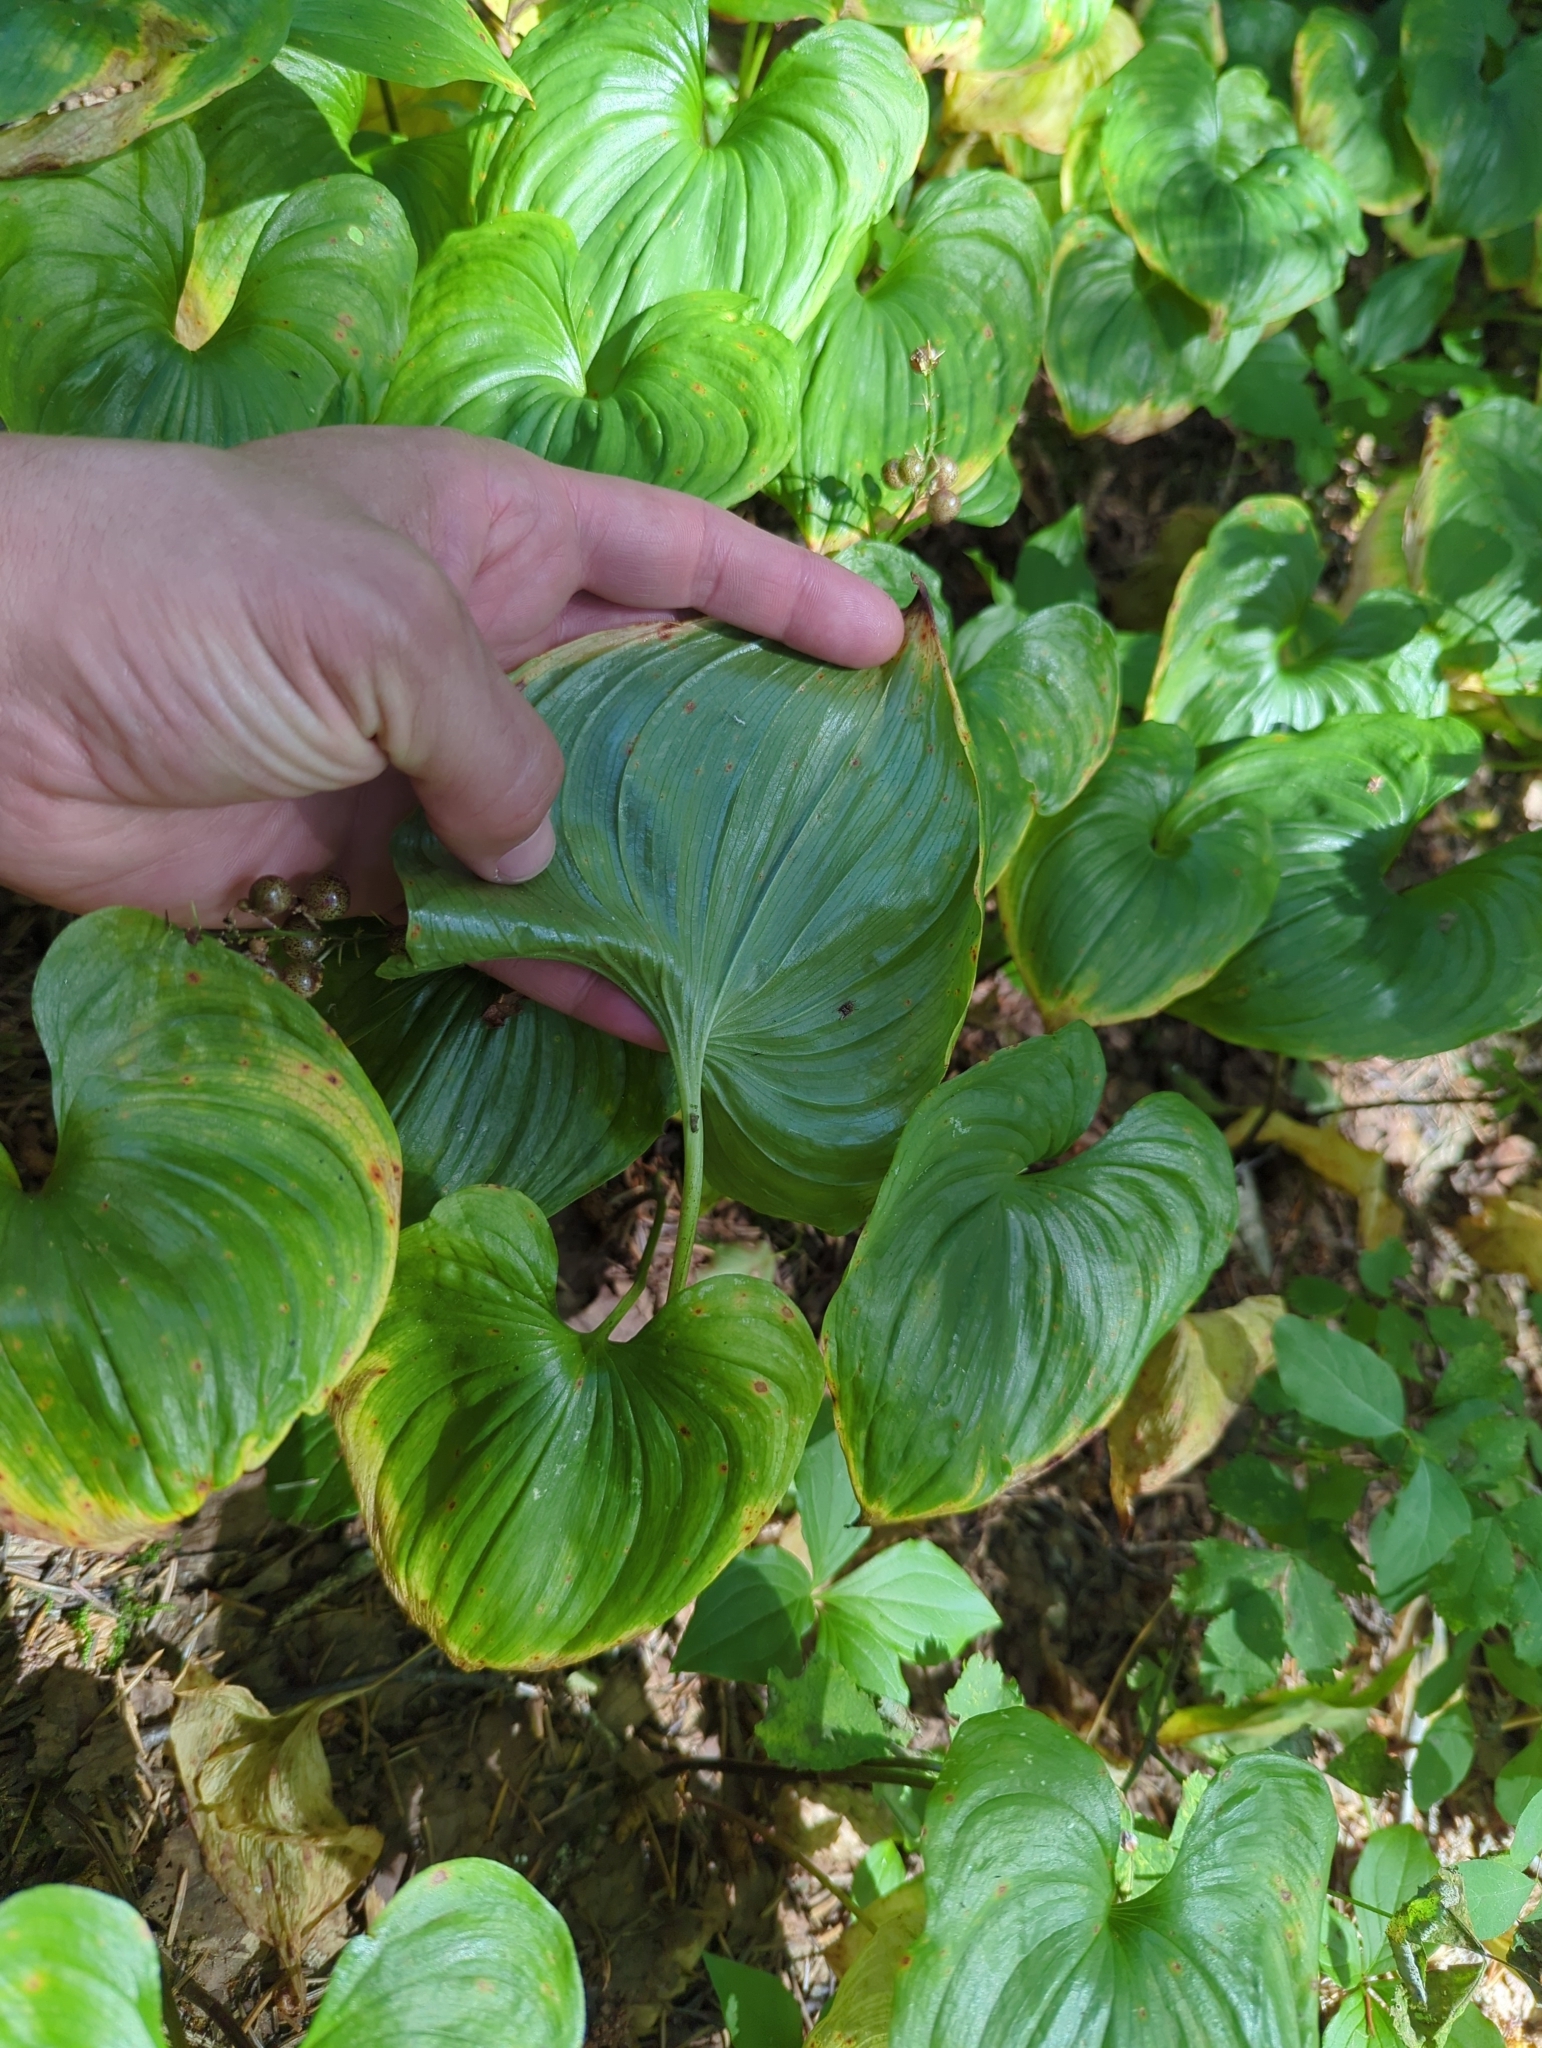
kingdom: Plantae
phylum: Tracheophyta
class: Liliopsida
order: Asparagales
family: Asparagaceae
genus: Maianthemum
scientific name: Maianthemum dilatatum
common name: False lily-of-the-valley
